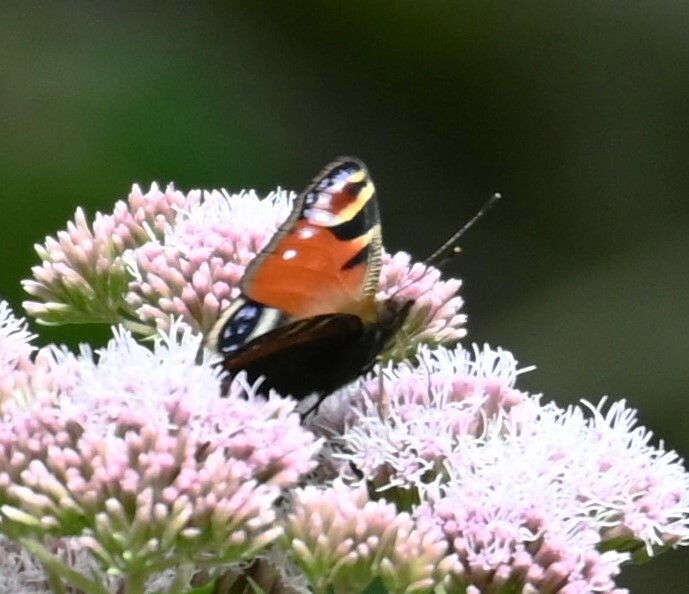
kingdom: Animalia
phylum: Arthropoda
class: Insecta
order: Lepidoptera
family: Nymphalidae
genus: Aglais
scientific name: Aglais io
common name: Peacock
